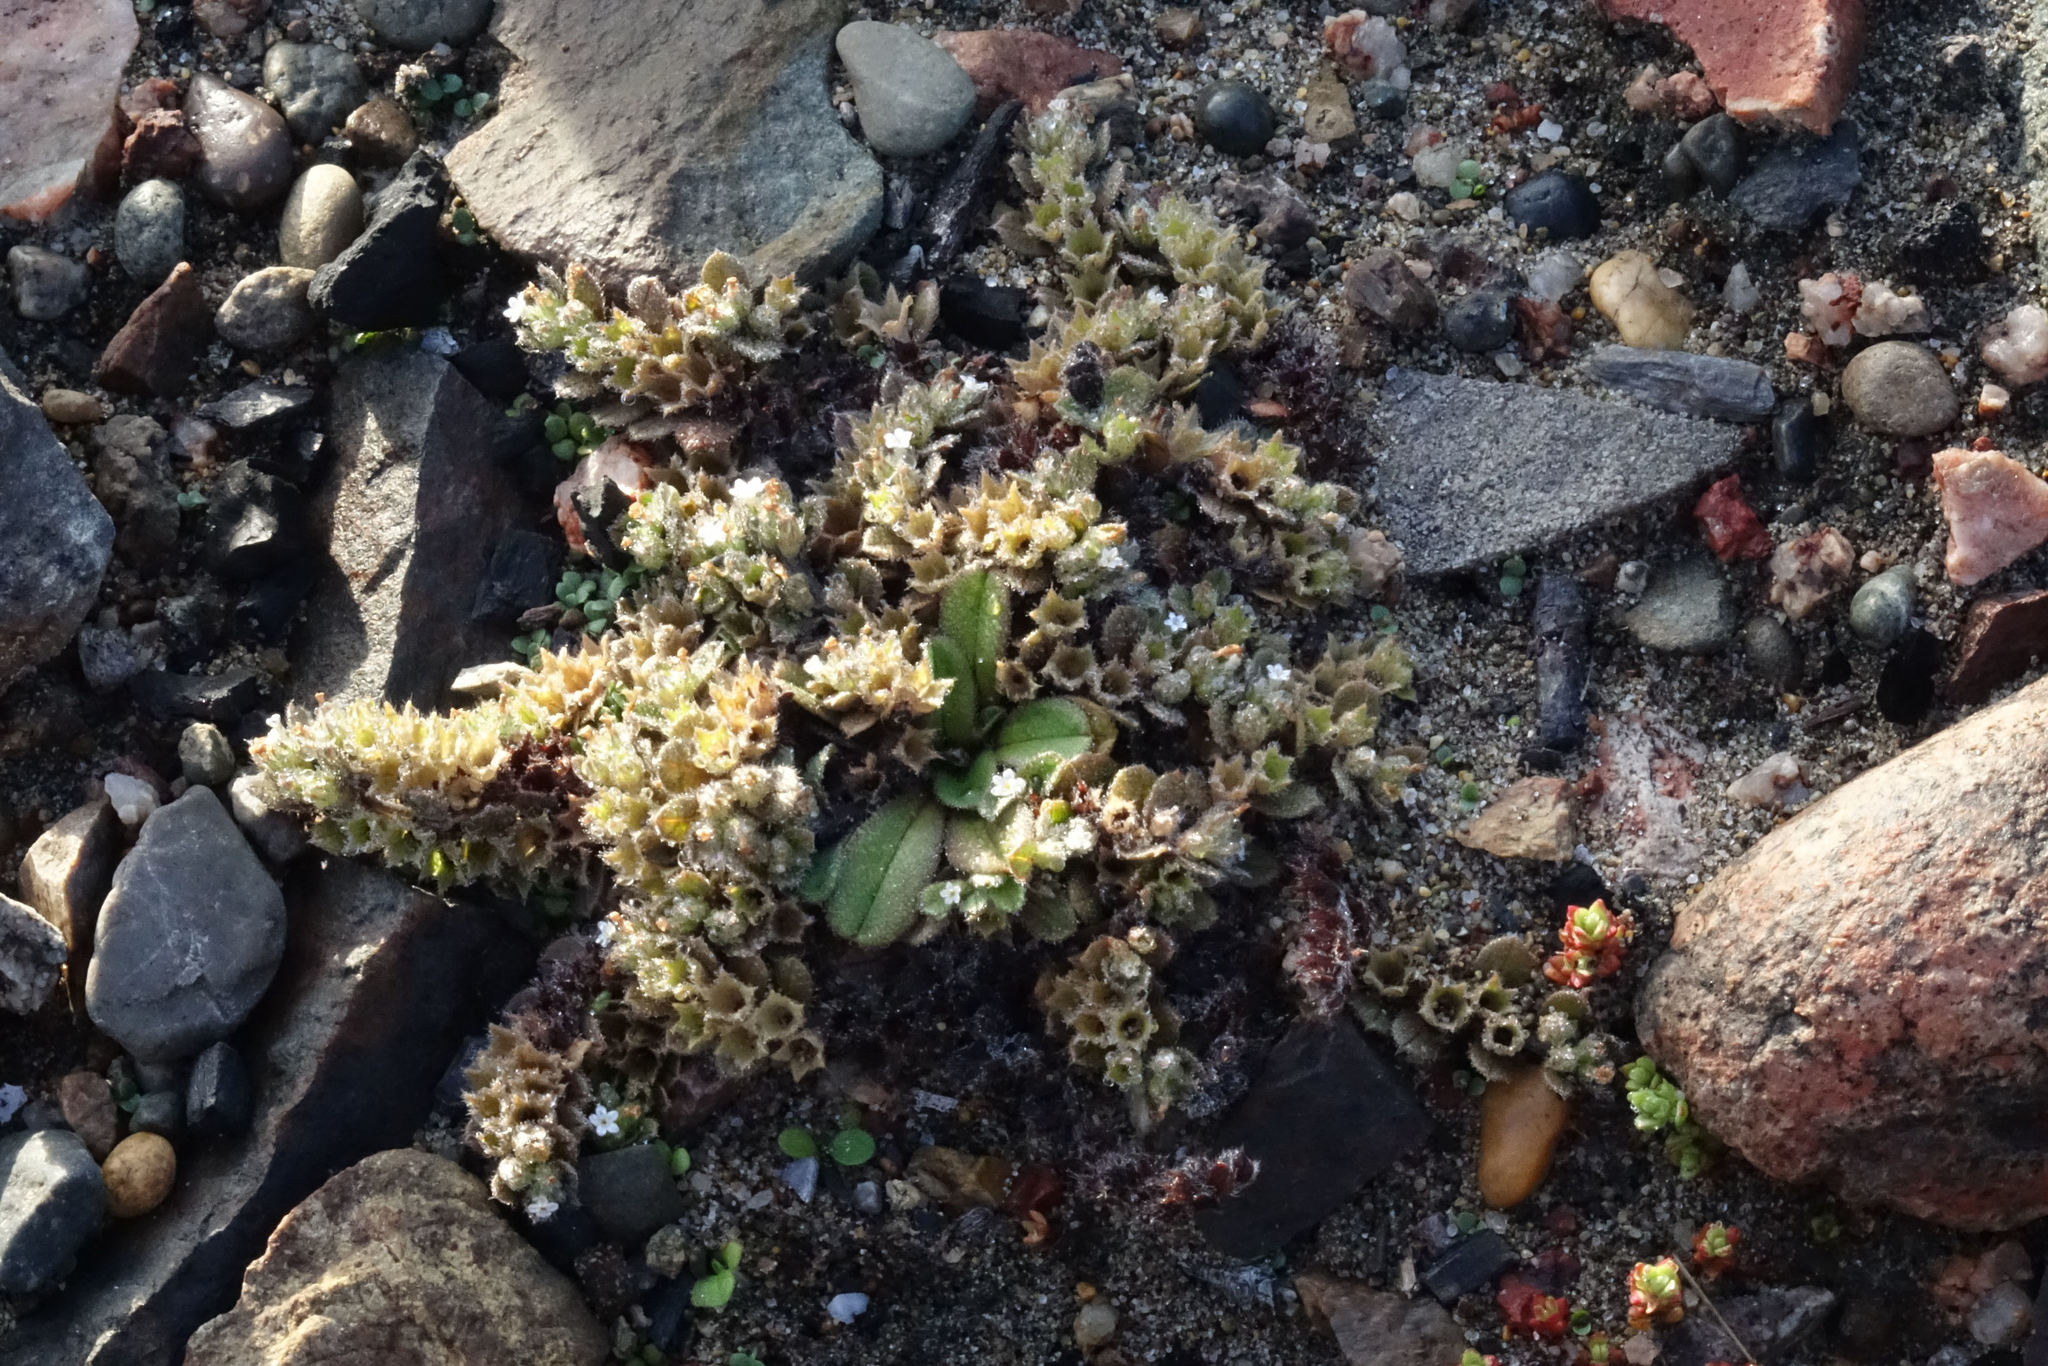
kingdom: Plantae
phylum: Tracheophyta
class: Magnoliopsida
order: Boraginales
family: Boraginaceae
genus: Myosotis
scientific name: Myosotis antarctica
